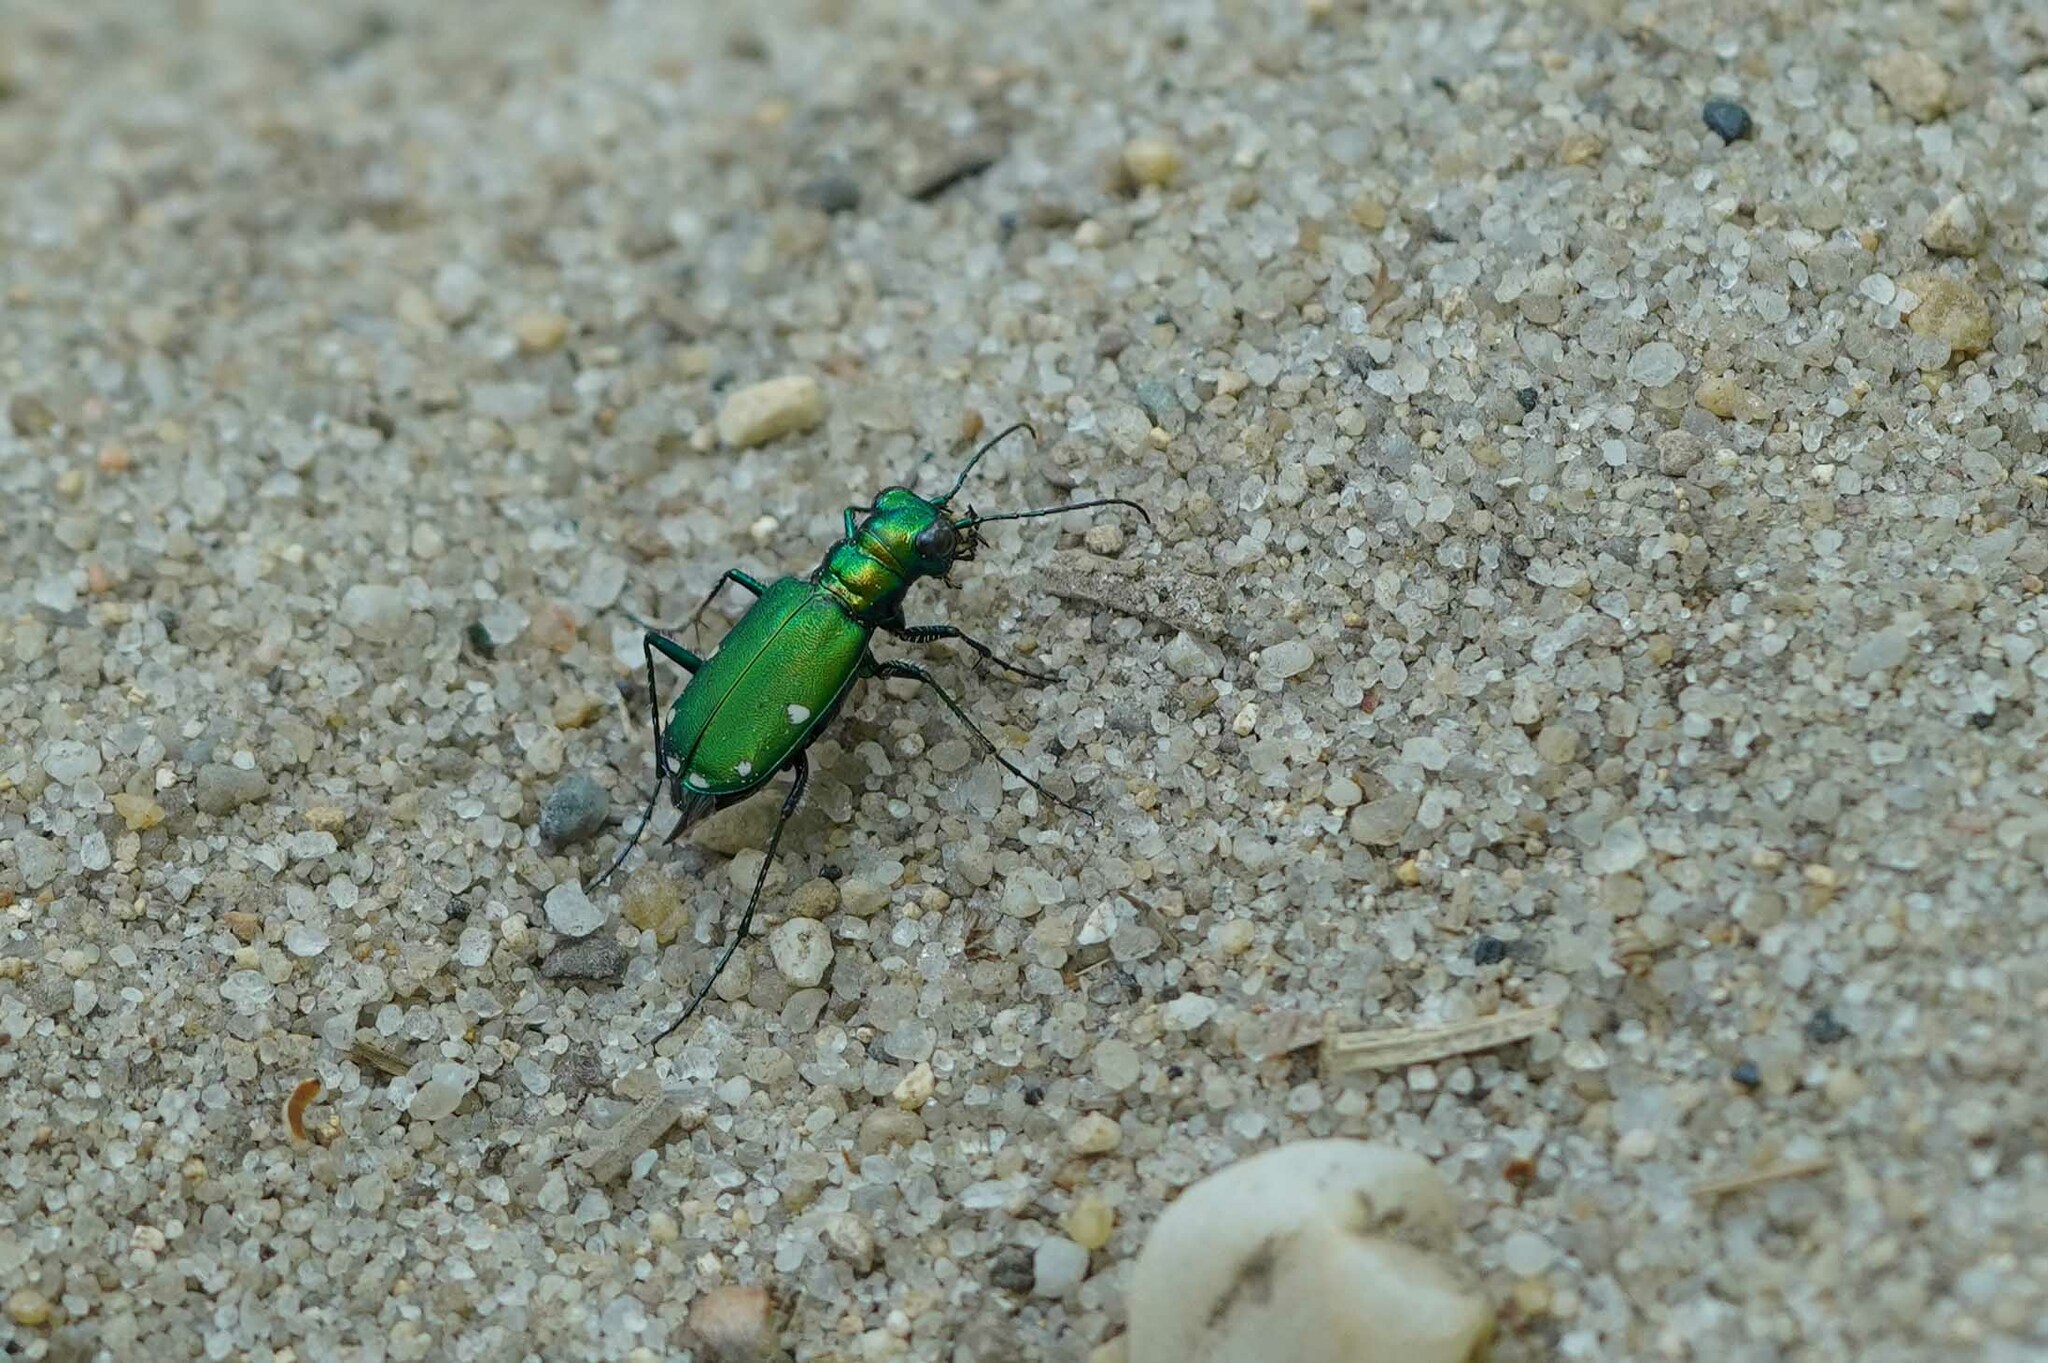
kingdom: Animalia
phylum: Arthropoda
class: Insecta
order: Coleoptera
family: Carabidae
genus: Cicindela
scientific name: Cicindela sexguttata
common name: Six-spotted tiger beetle
